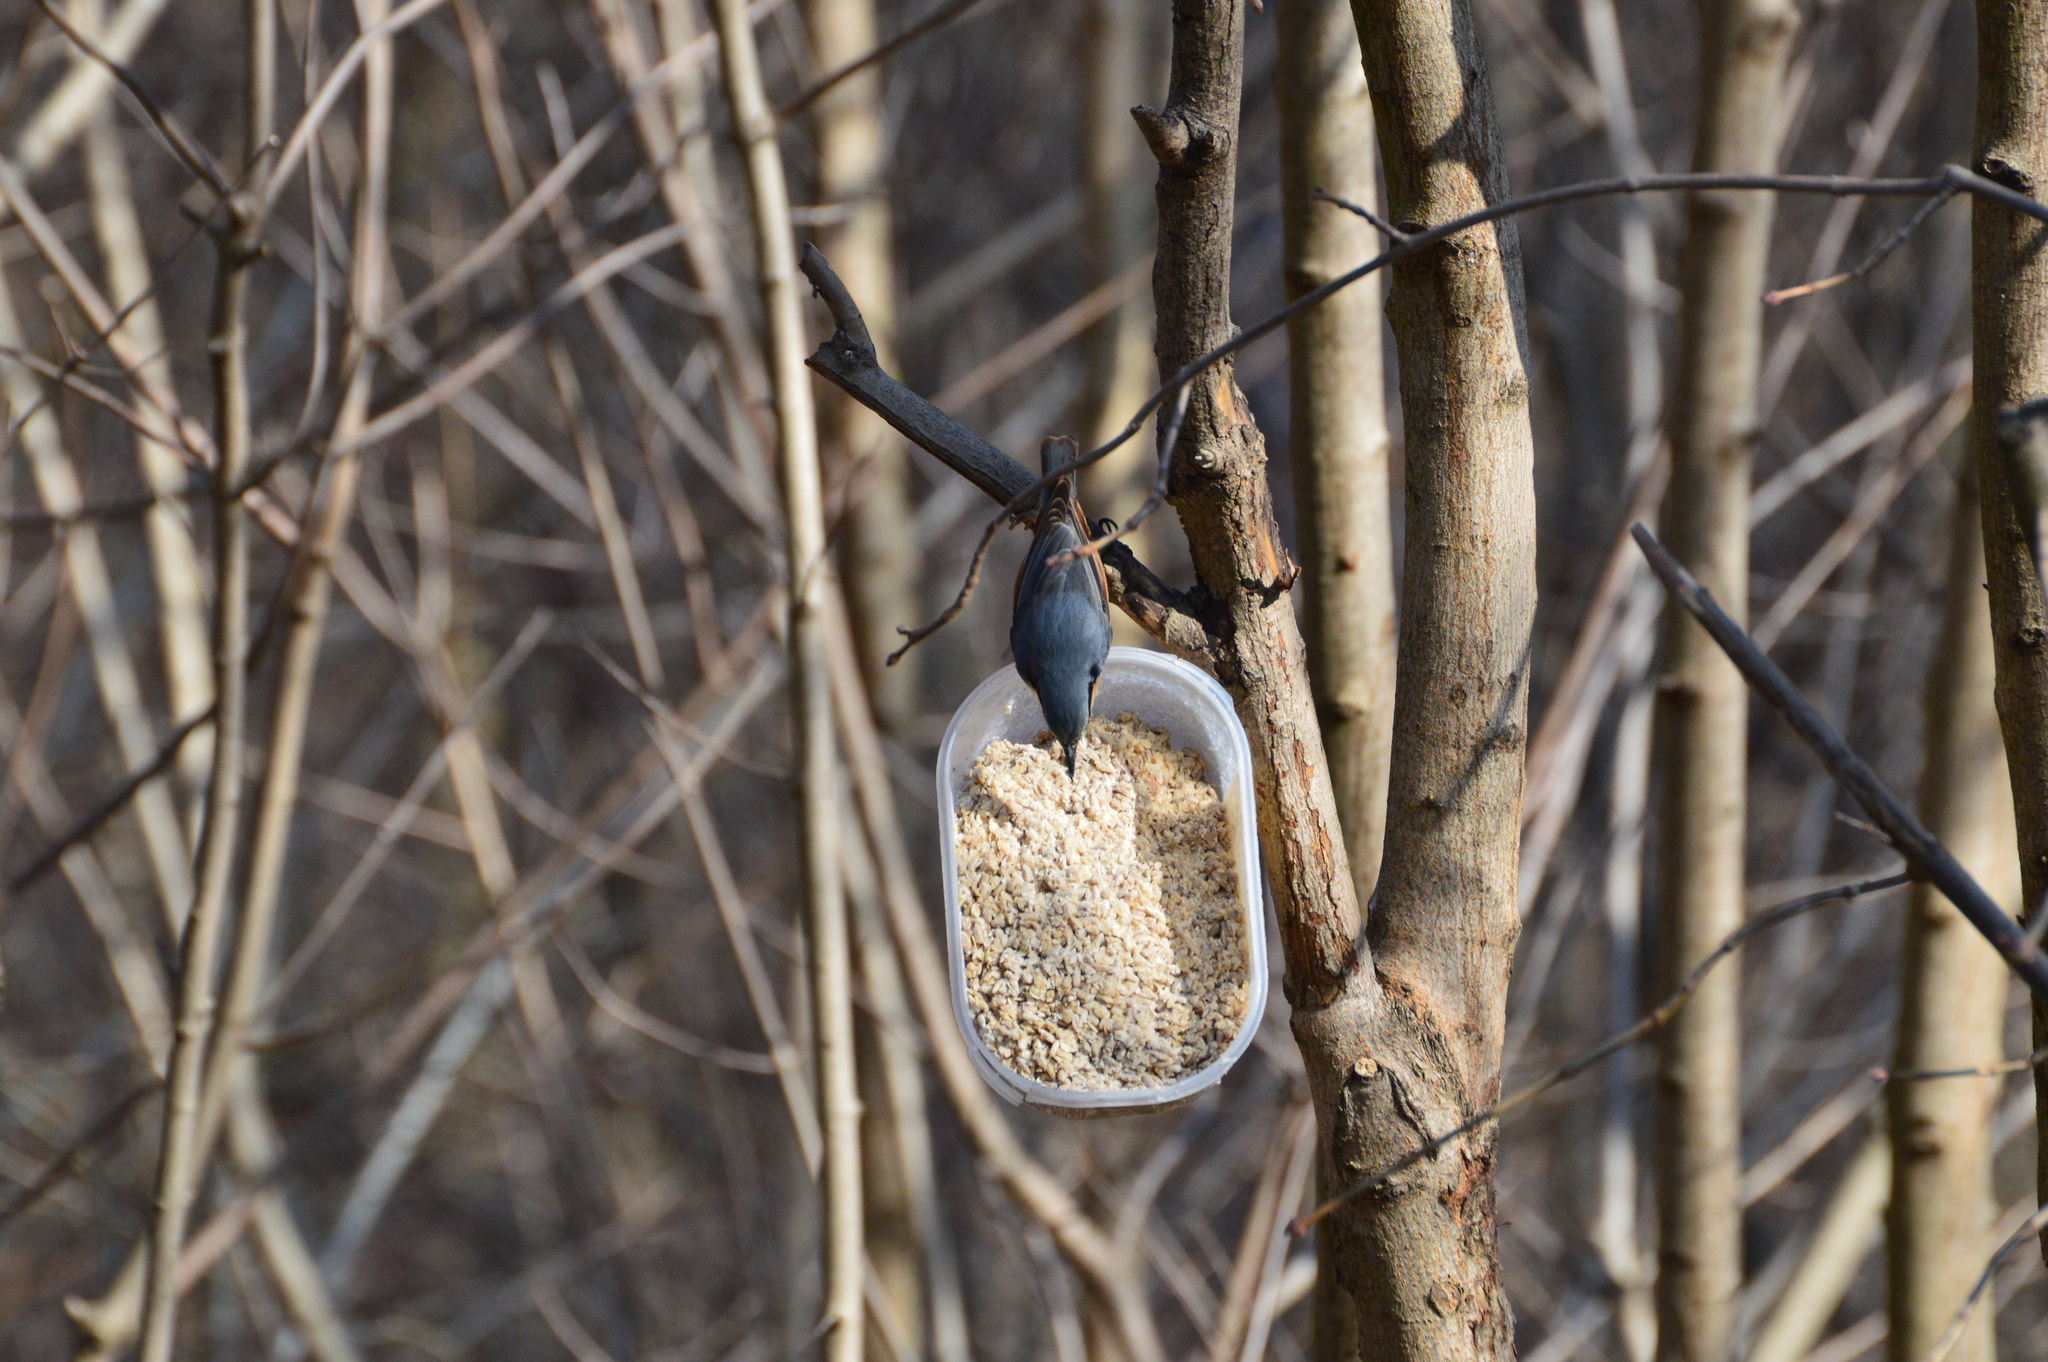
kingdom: Animalia
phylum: Chordata
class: Aves
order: Passeriformes
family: Sittidae
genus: Sitta
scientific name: Sitta europaea
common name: Eurasian nuthatch
